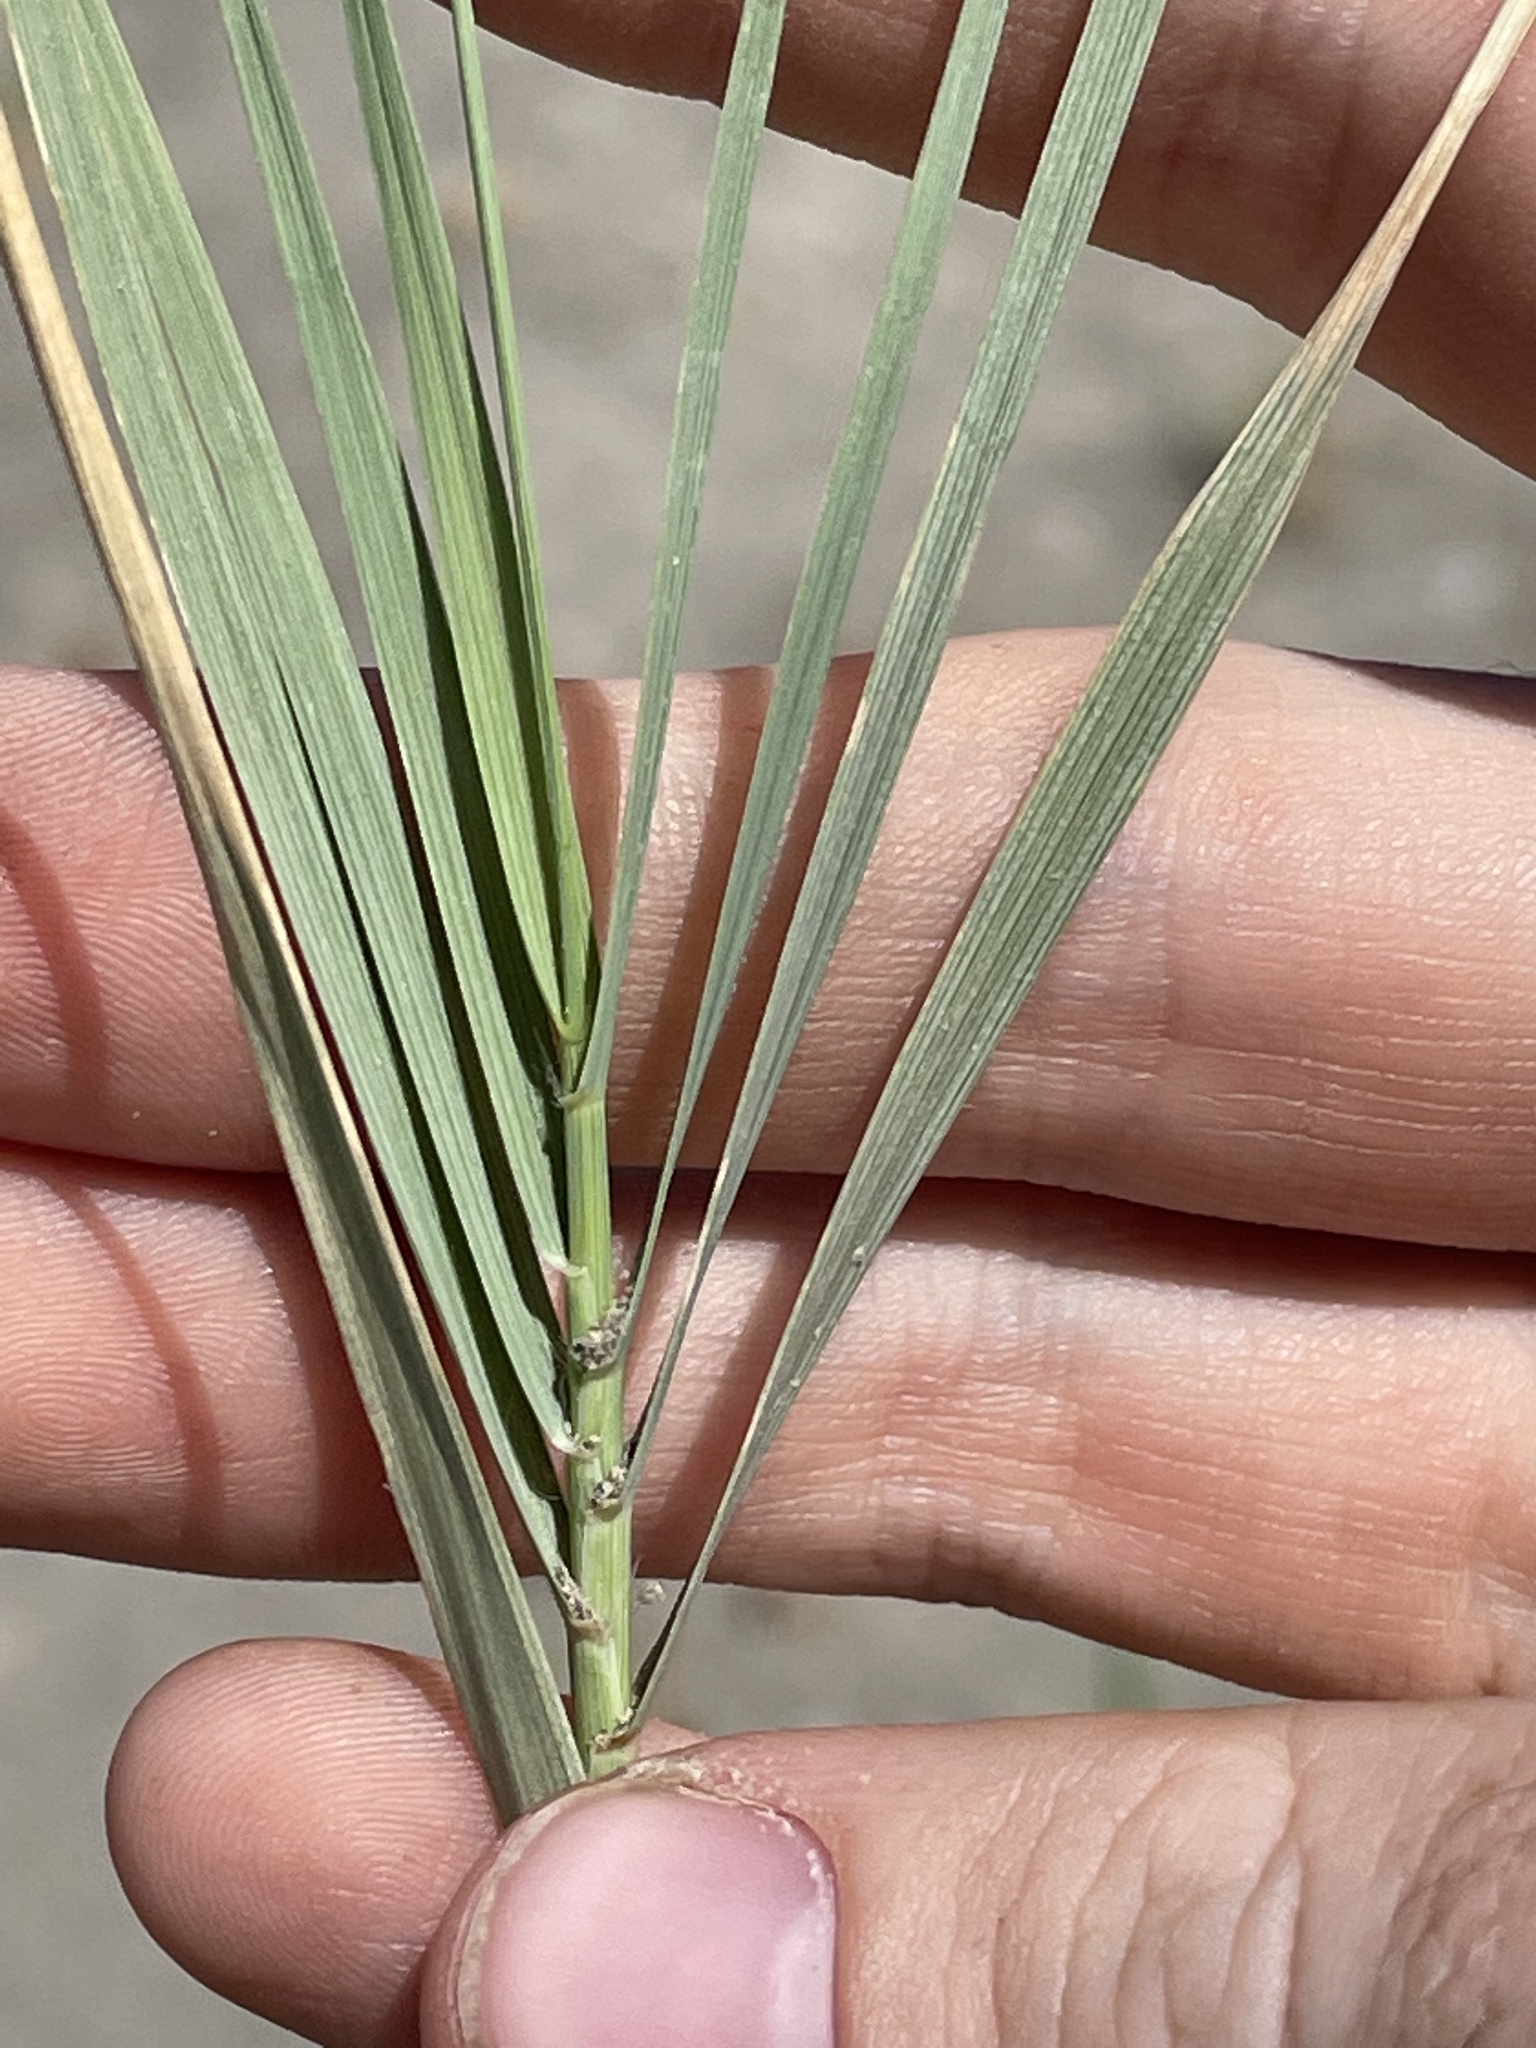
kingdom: Plantae
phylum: Tracheophyta
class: Liliopsida
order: Poales
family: Poaceae
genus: Distichlis
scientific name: Distichlis spicata
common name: Saltgrass
